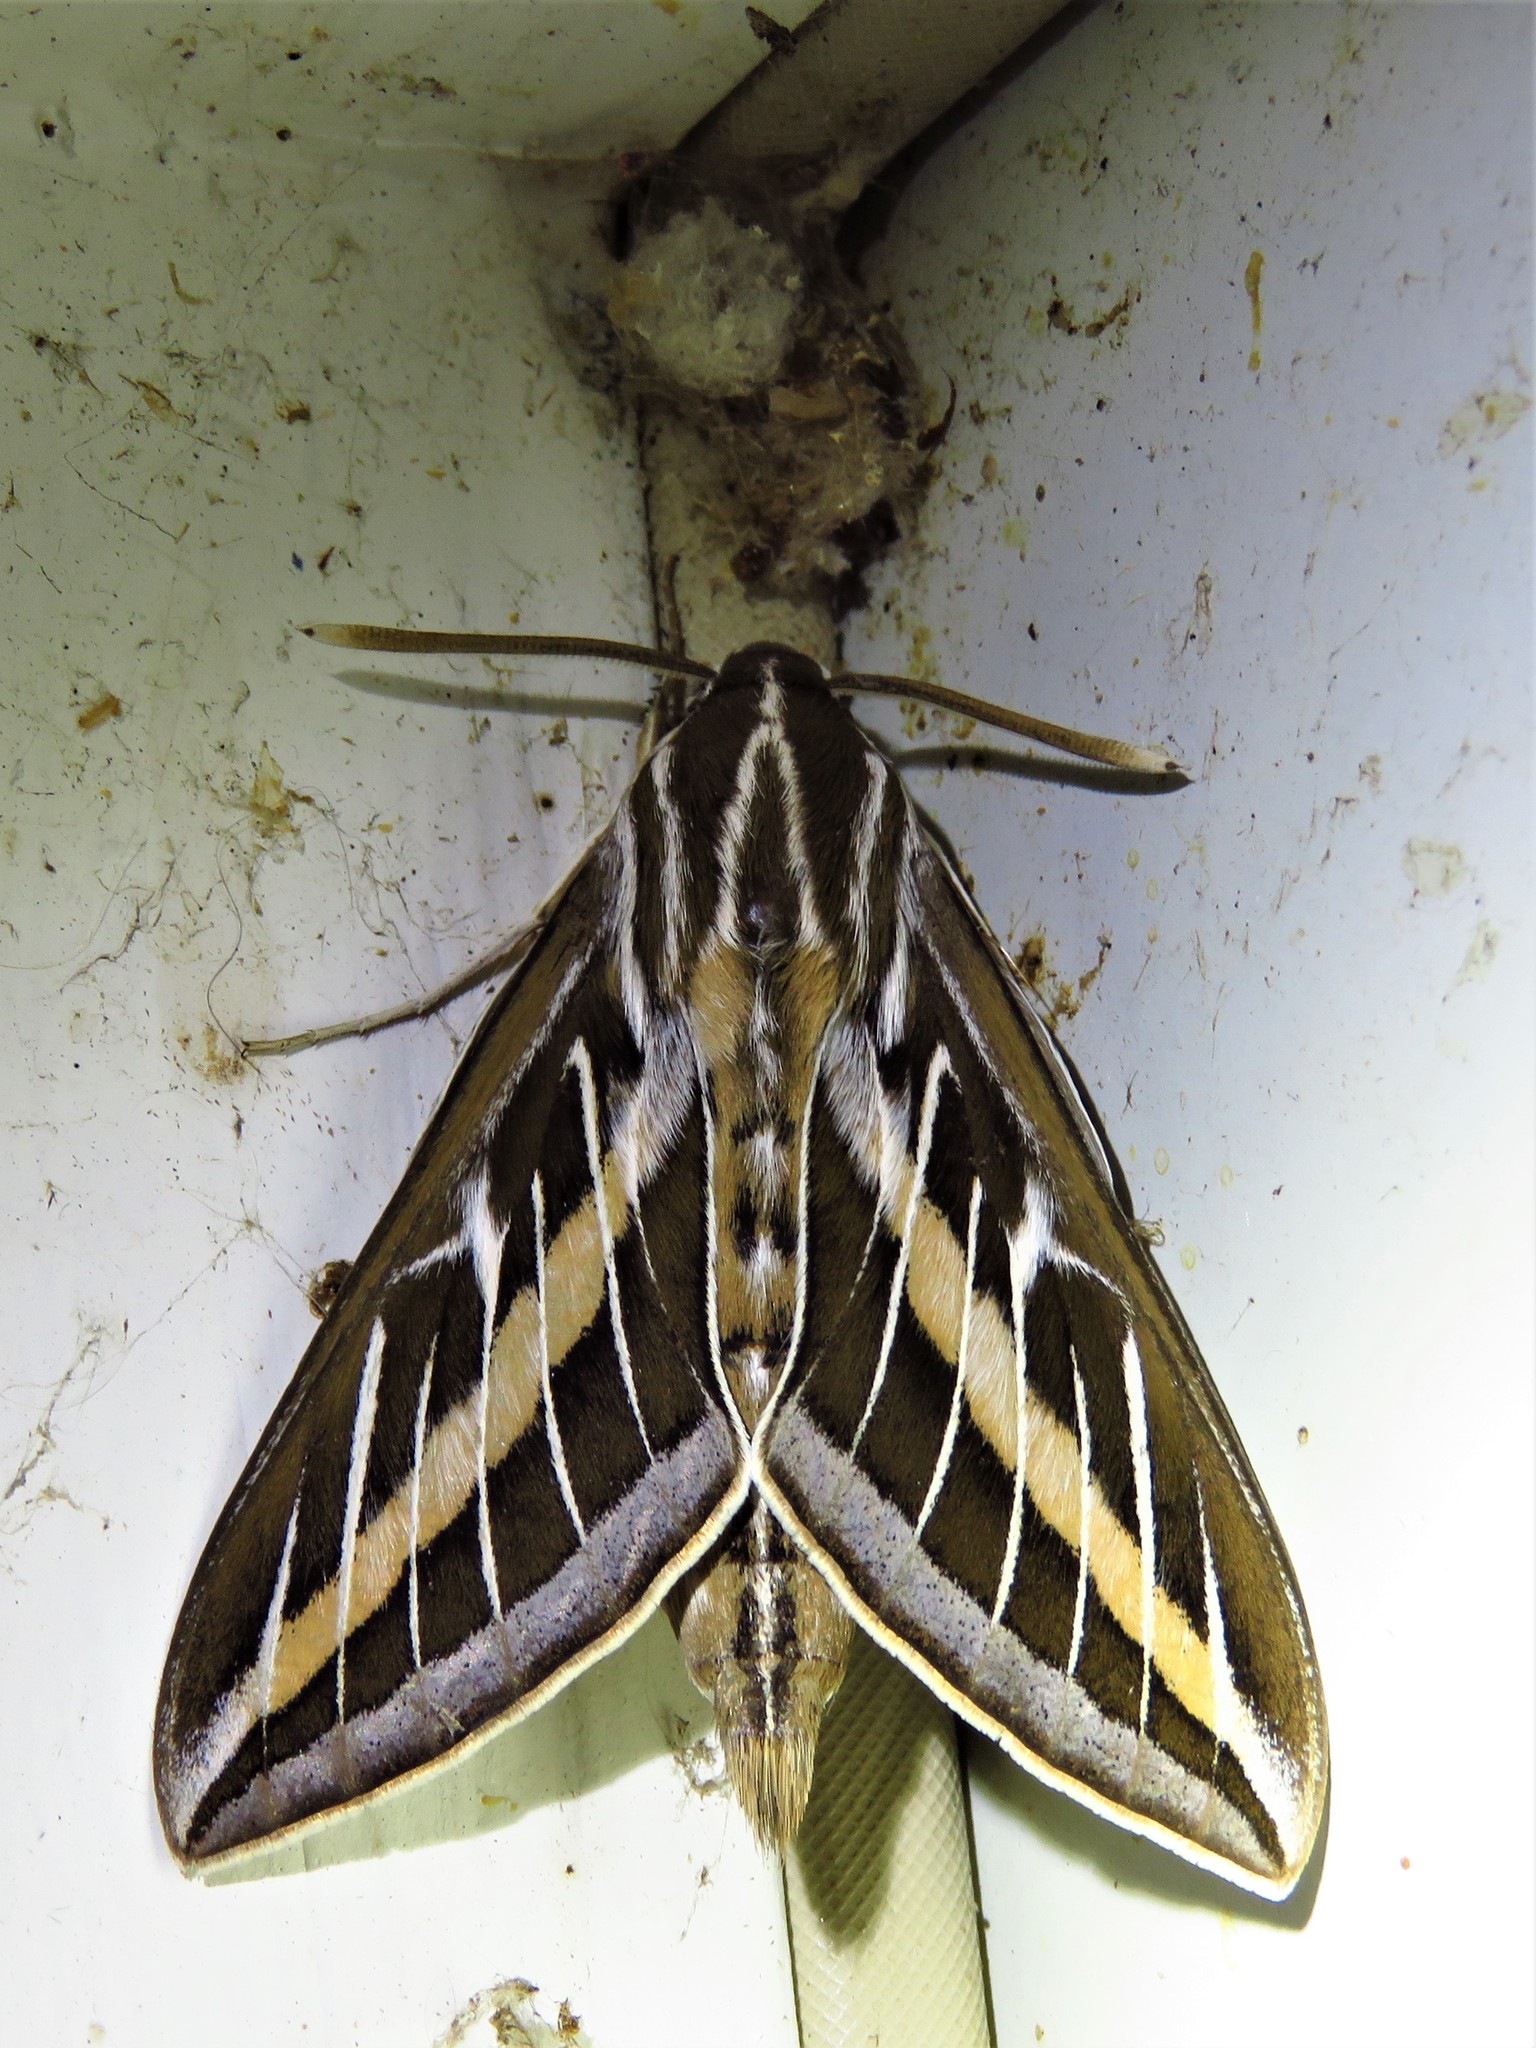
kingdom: Animalia
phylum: Arthropoda
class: Insecta
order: Lepidoptera
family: Sphingidae
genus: Hyles
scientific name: Hyles lineata
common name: White-lined sphinx
